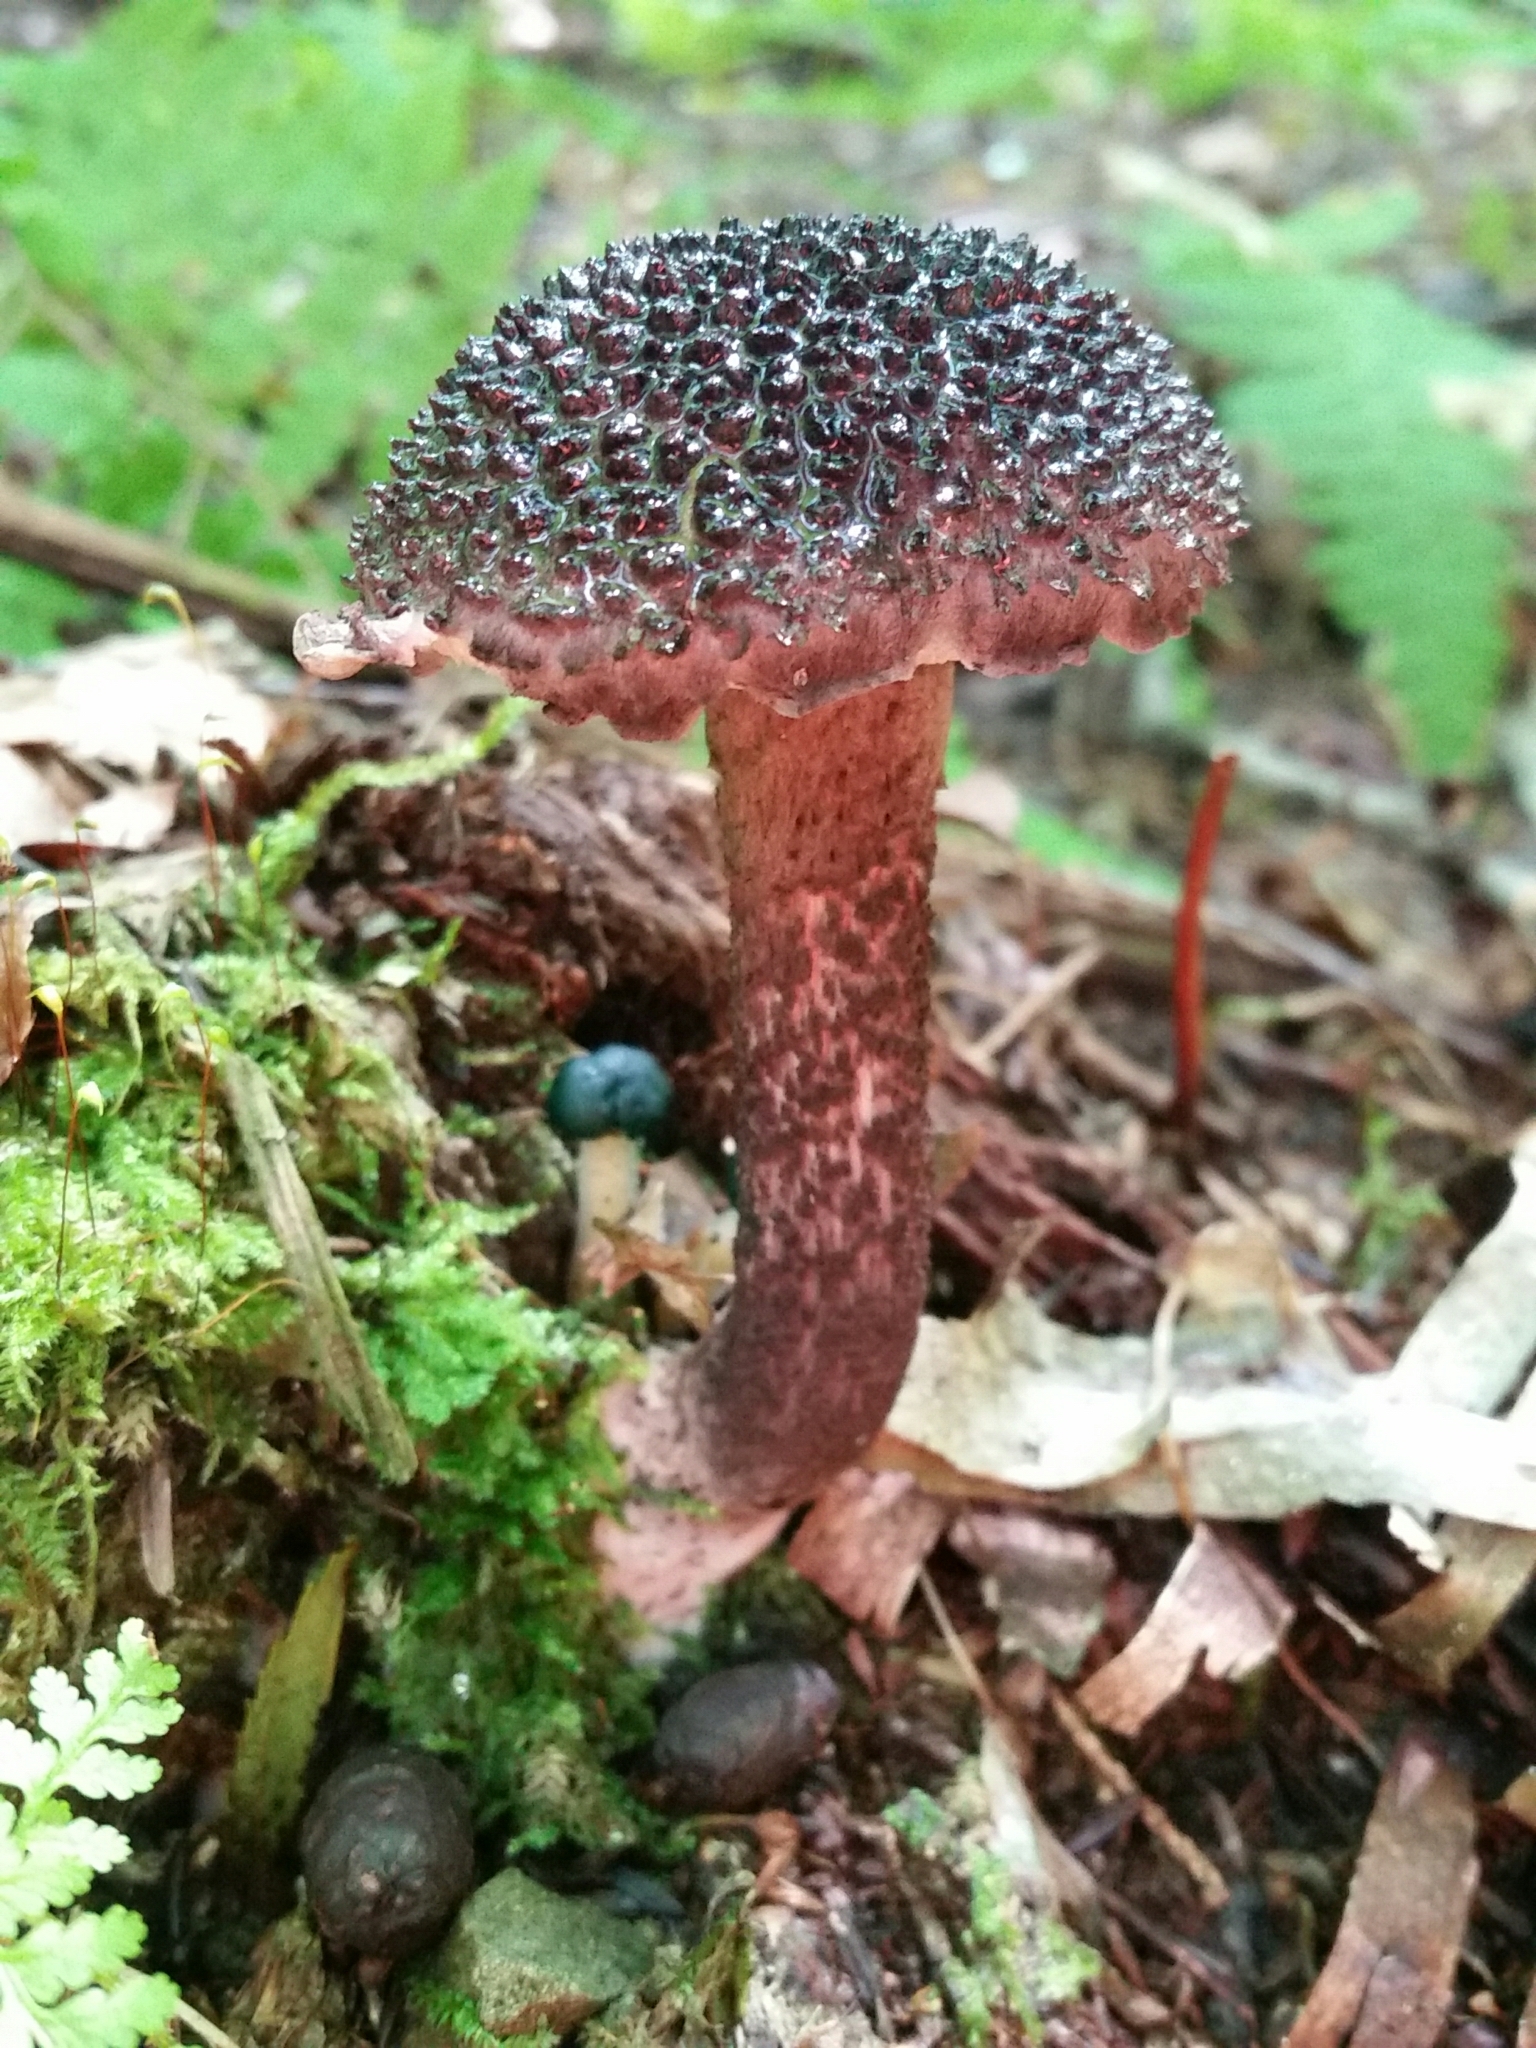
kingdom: Fungi
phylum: Basidiomycota
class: Agaricomycetes
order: Boletales
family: Boletaceae
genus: Strobilomyces
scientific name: Strobilomyces strobilaceus
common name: Old man of the woods
